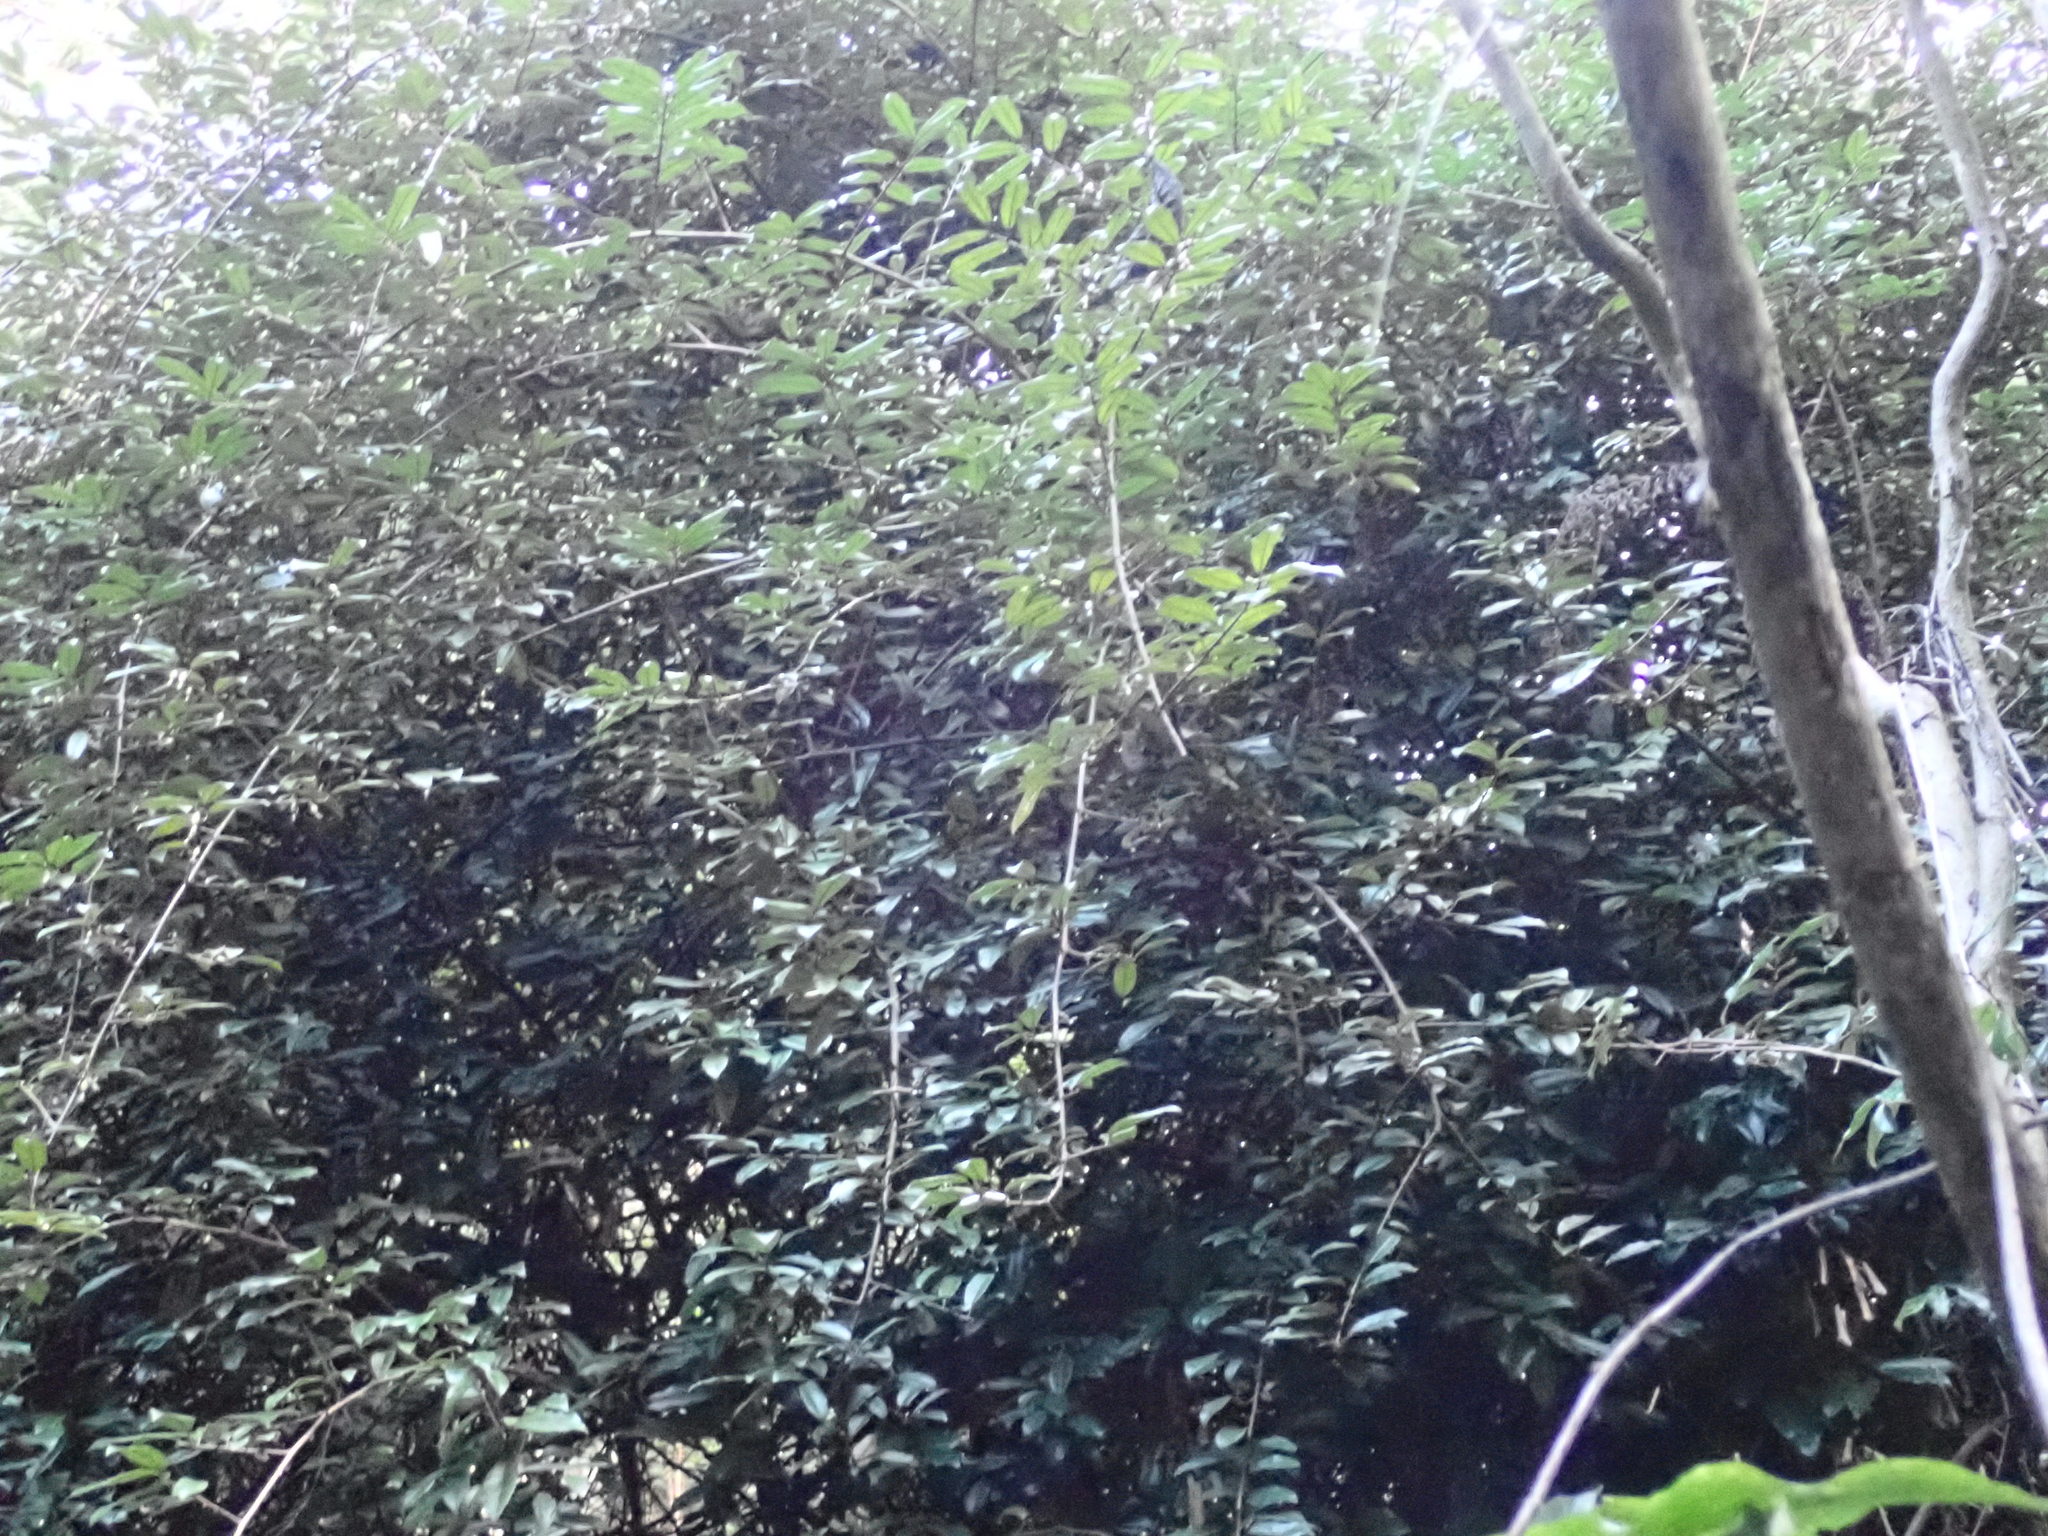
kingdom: Plantae
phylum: Tracheophyta
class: Magnoliopsida
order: Rosales
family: Elaeagnaceae
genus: Elaeagnus
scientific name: Elaeagnus reflexa
